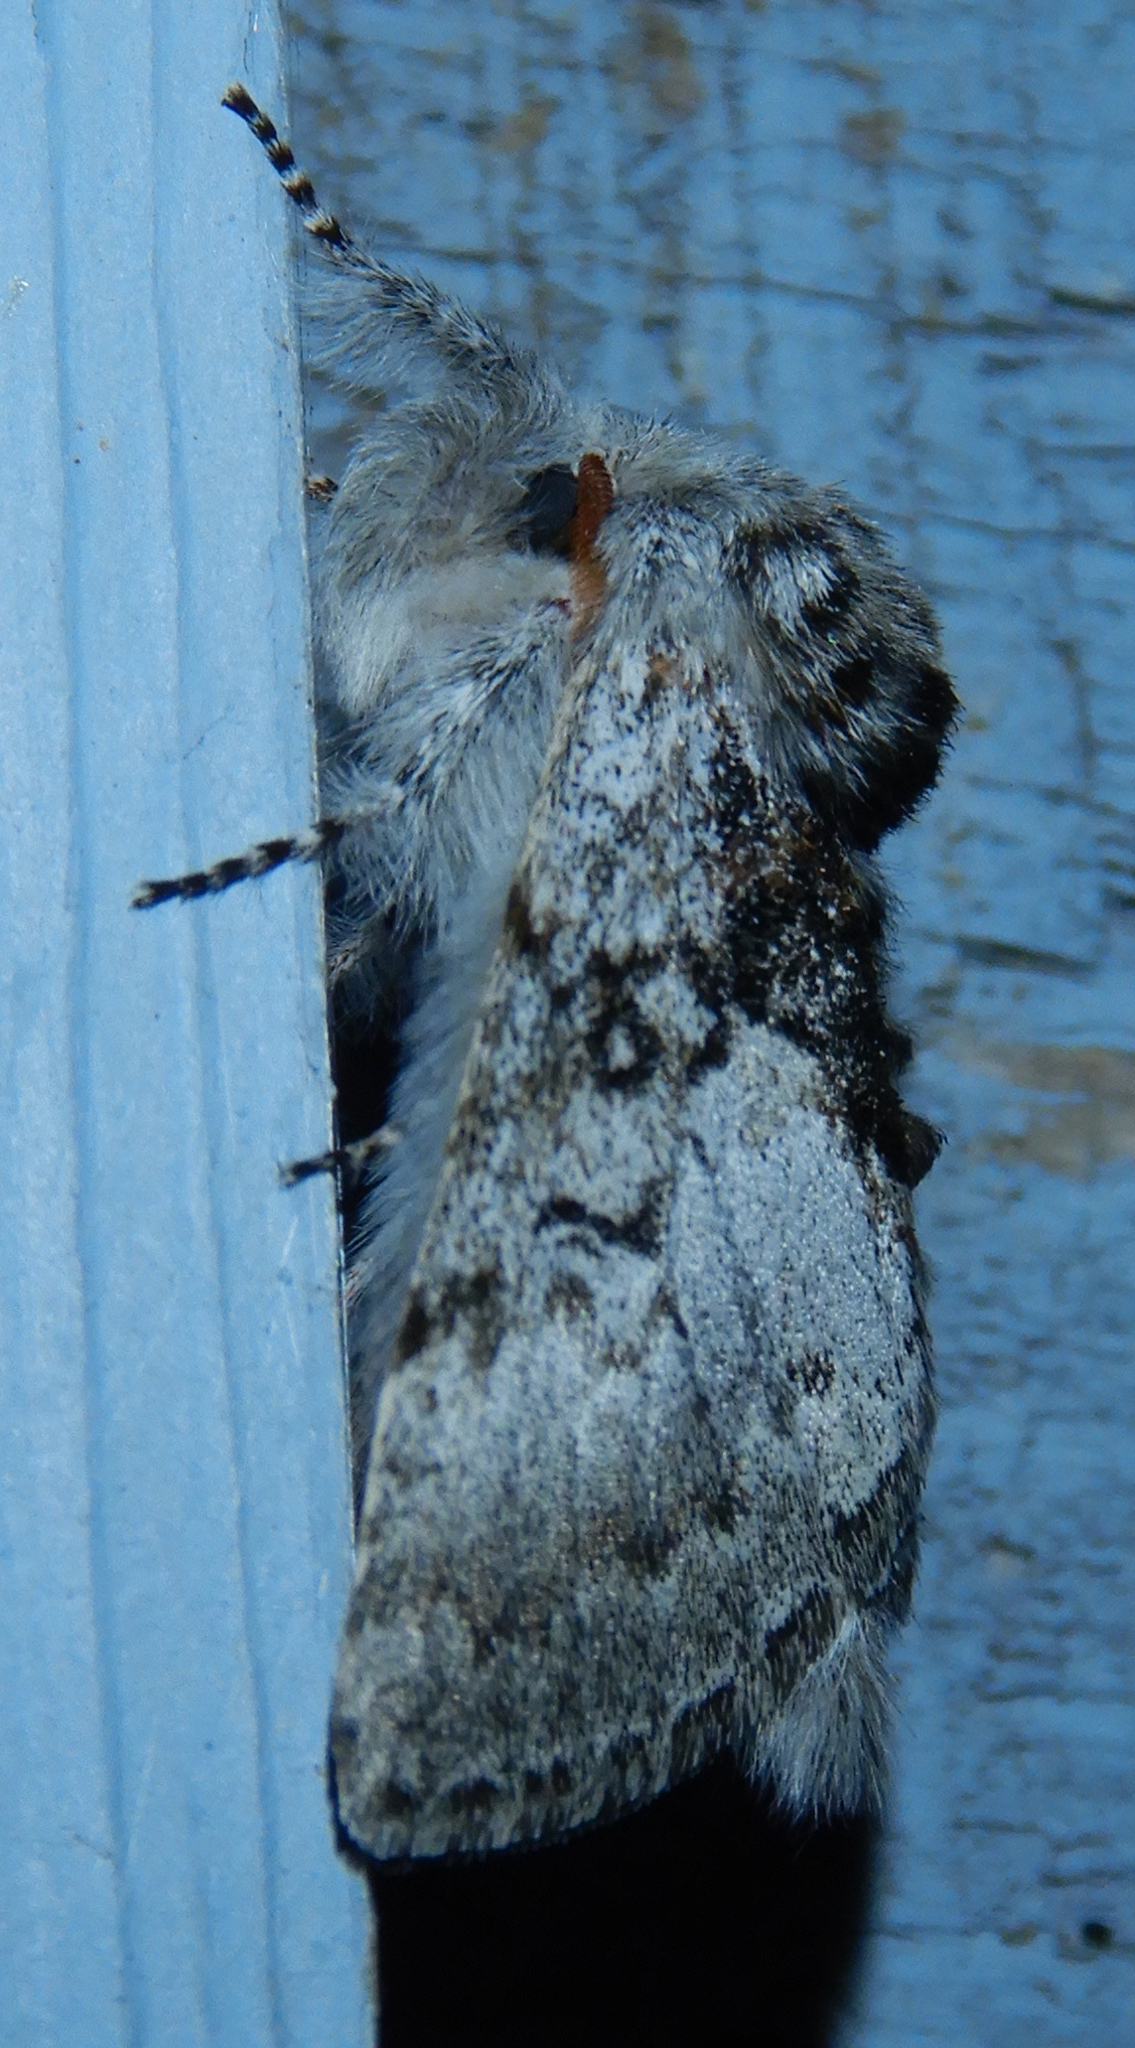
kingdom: Animalia
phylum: Arthropoda
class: Insecta
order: Lepidoptera
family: Noctuidae
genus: Colocasia
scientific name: Colocasia flavicornis
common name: Saddled yellowhorn
